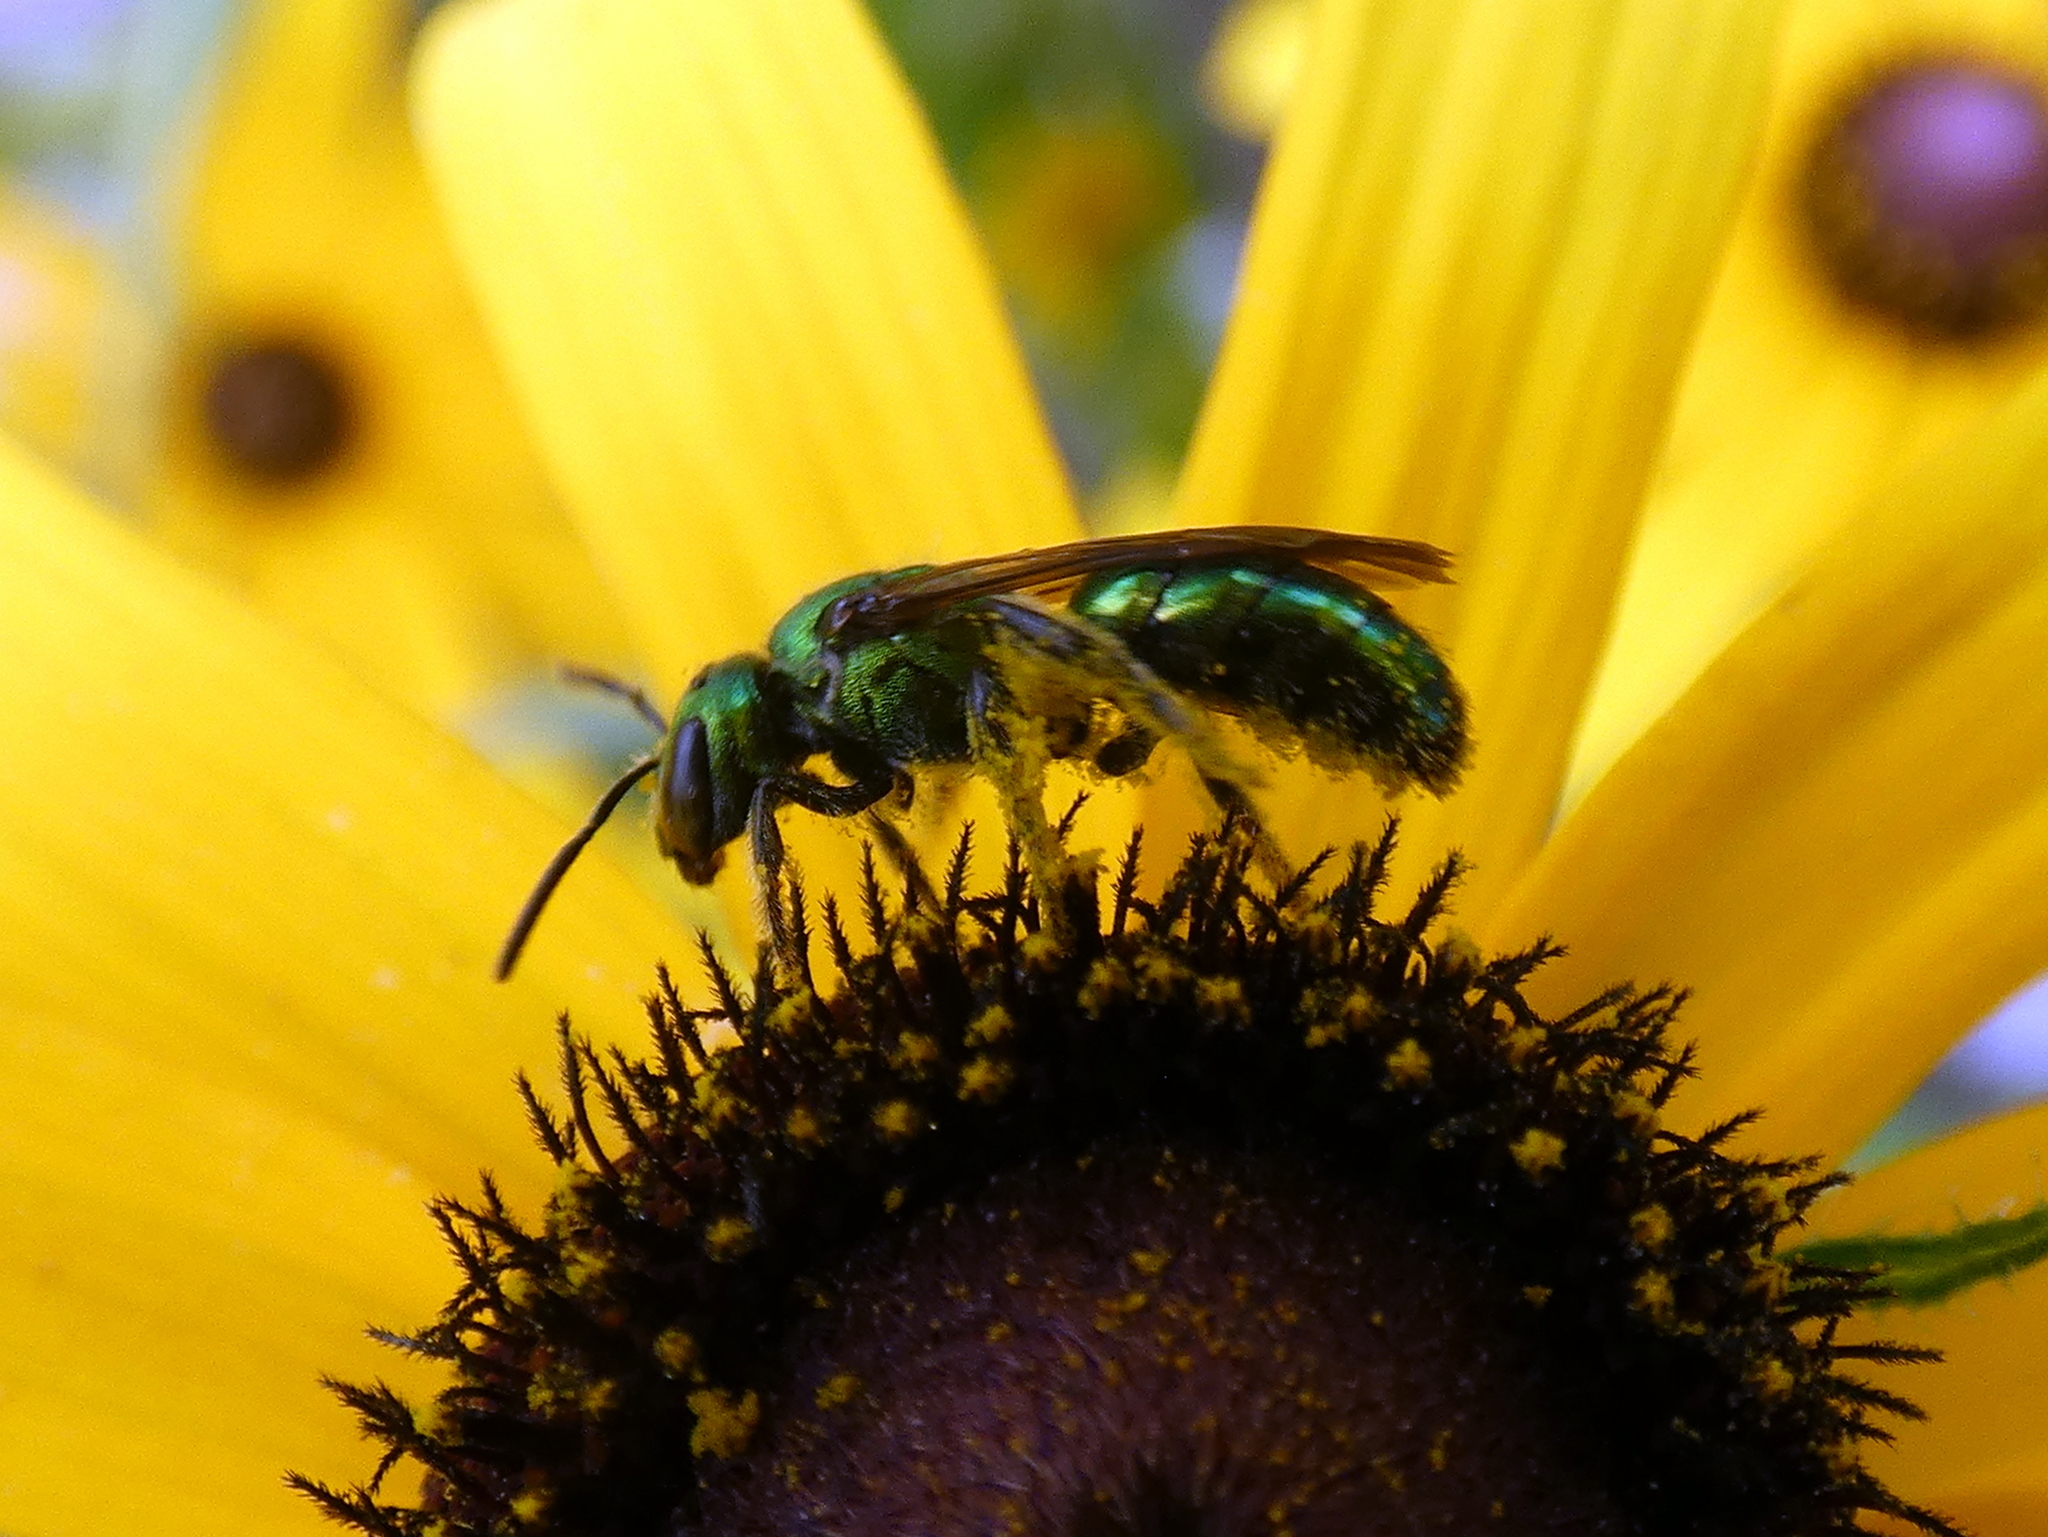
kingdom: Animalia
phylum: Arthropoda
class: Insecta
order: Hymenoptera
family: Halictidae
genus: Augochlora
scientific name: Augochlora pura
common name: Pure green sweat bee
